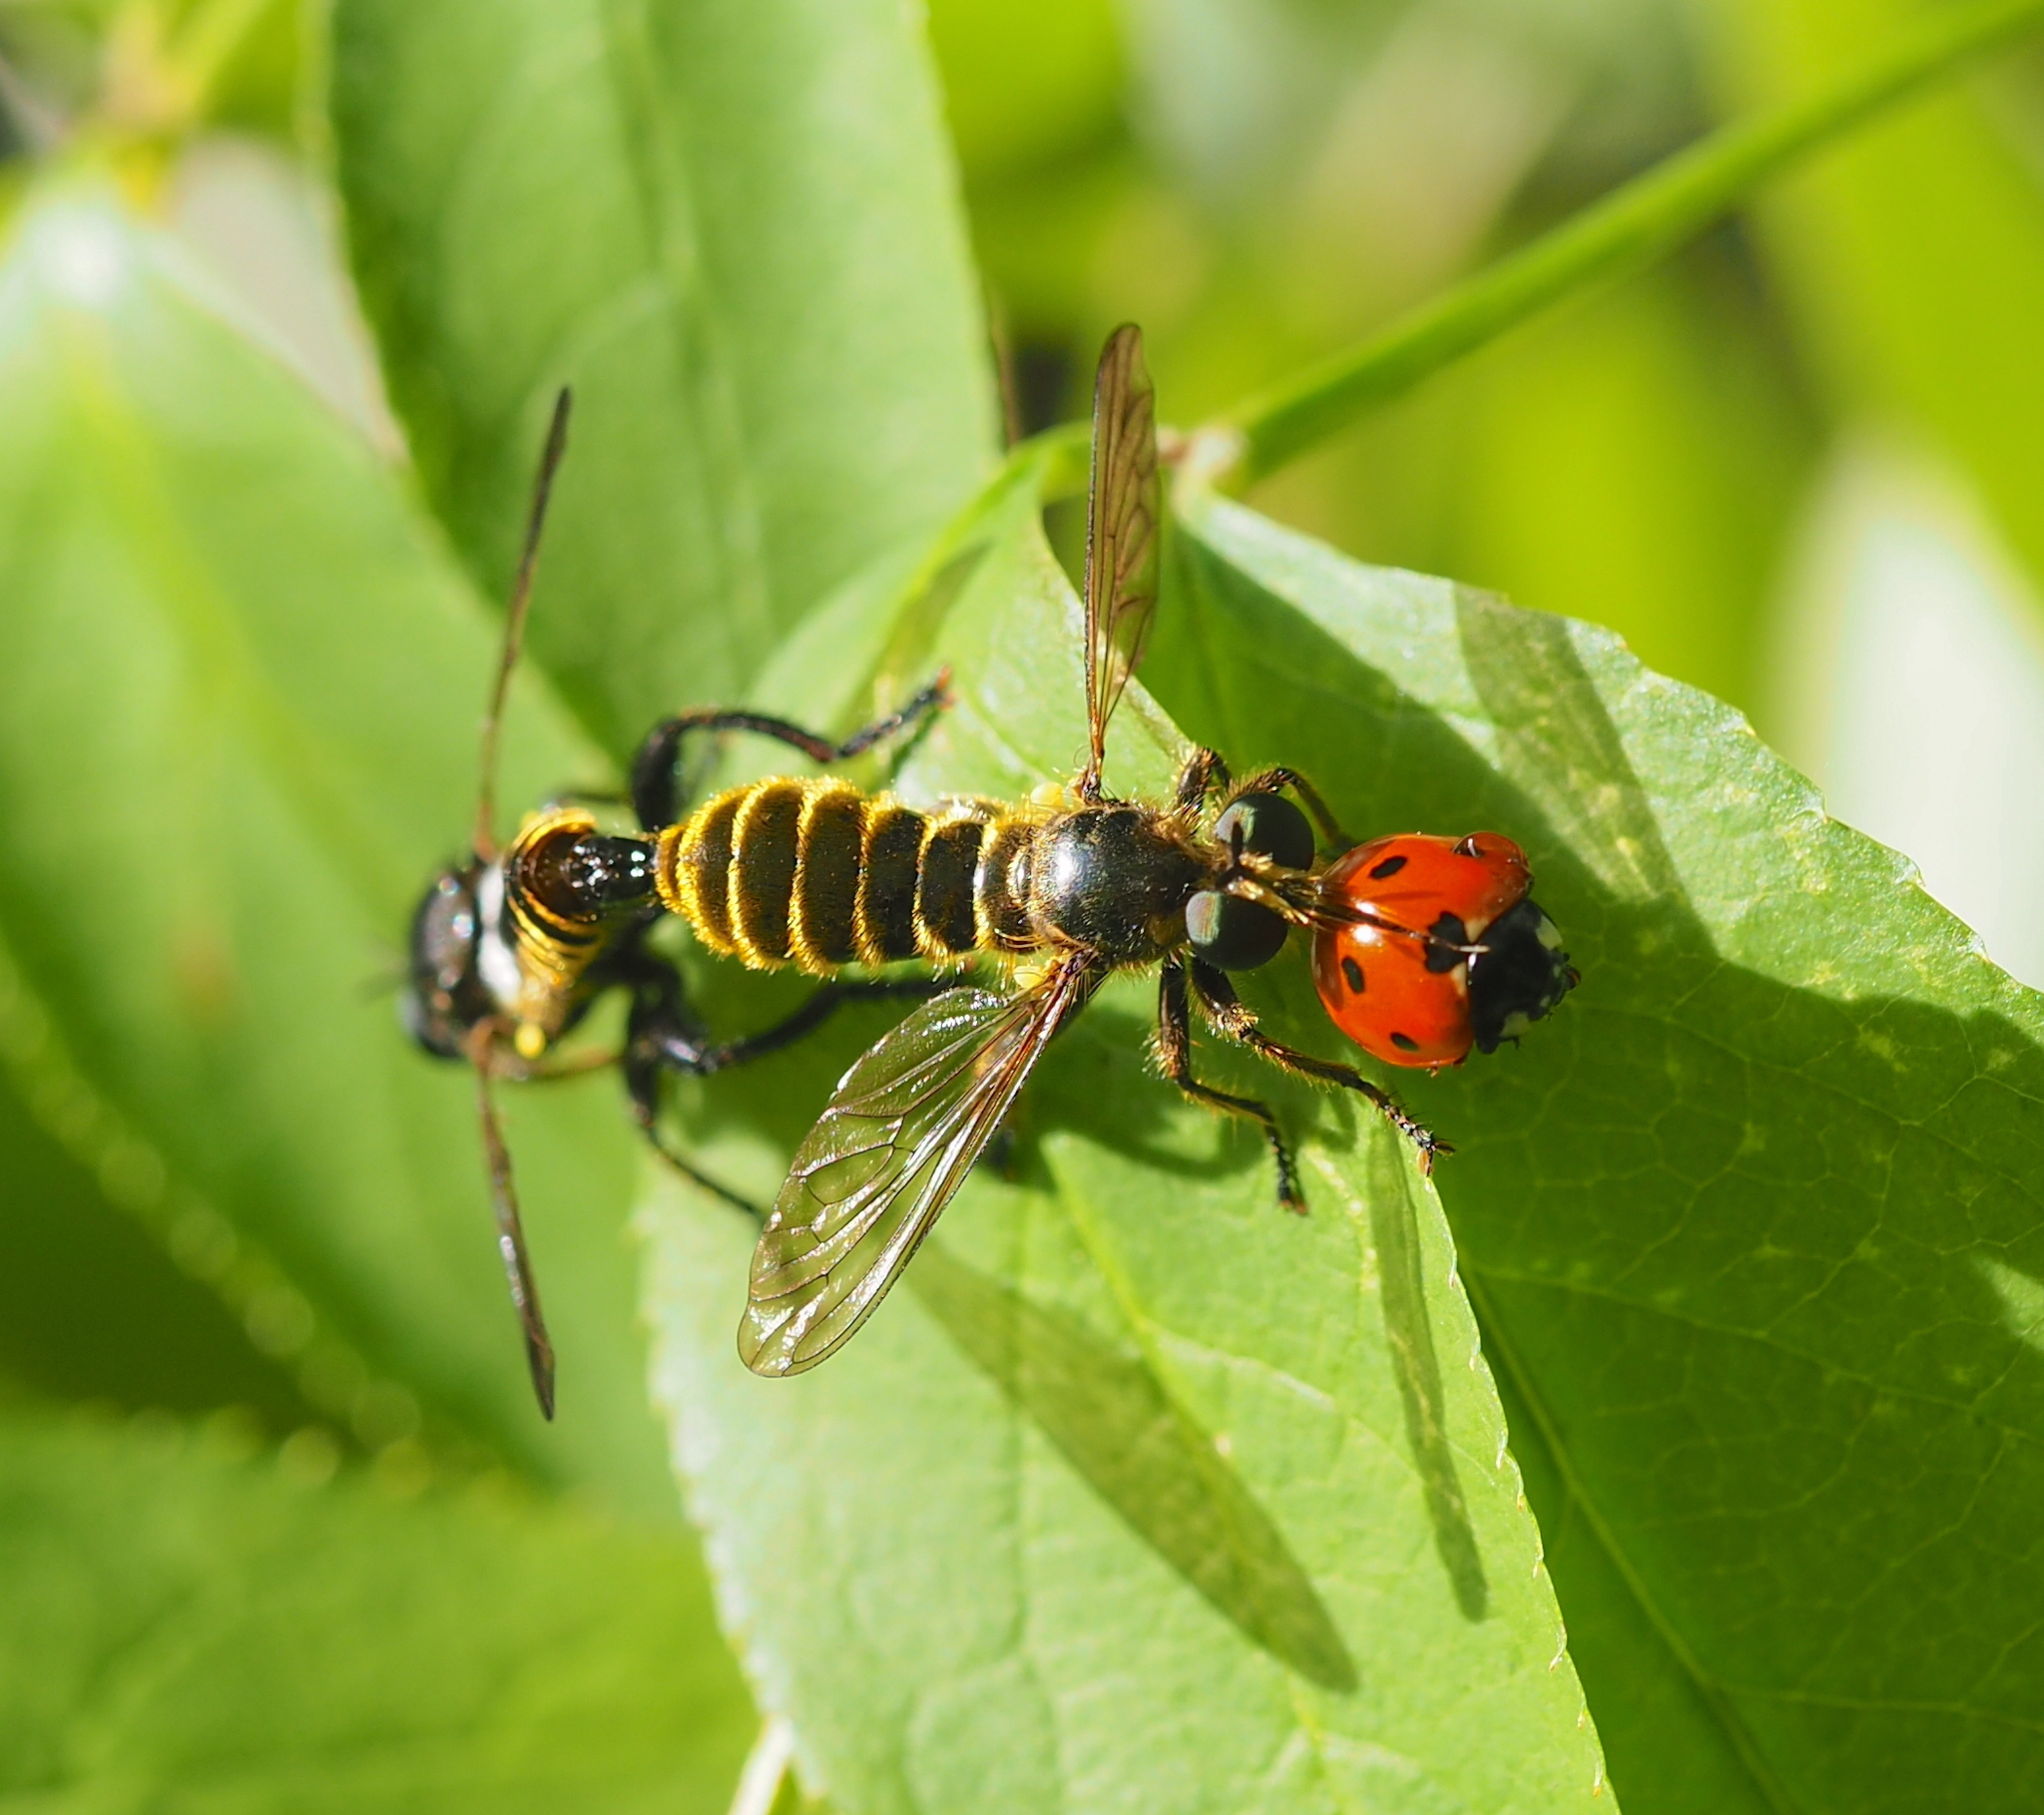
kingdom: Animalia
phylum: Arthropoda
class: Insecta
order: Coleoptera
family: Coccinellidae
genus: Coccinella
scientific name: Coccinella septempunctata
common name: Sevenspotted lady beetle
